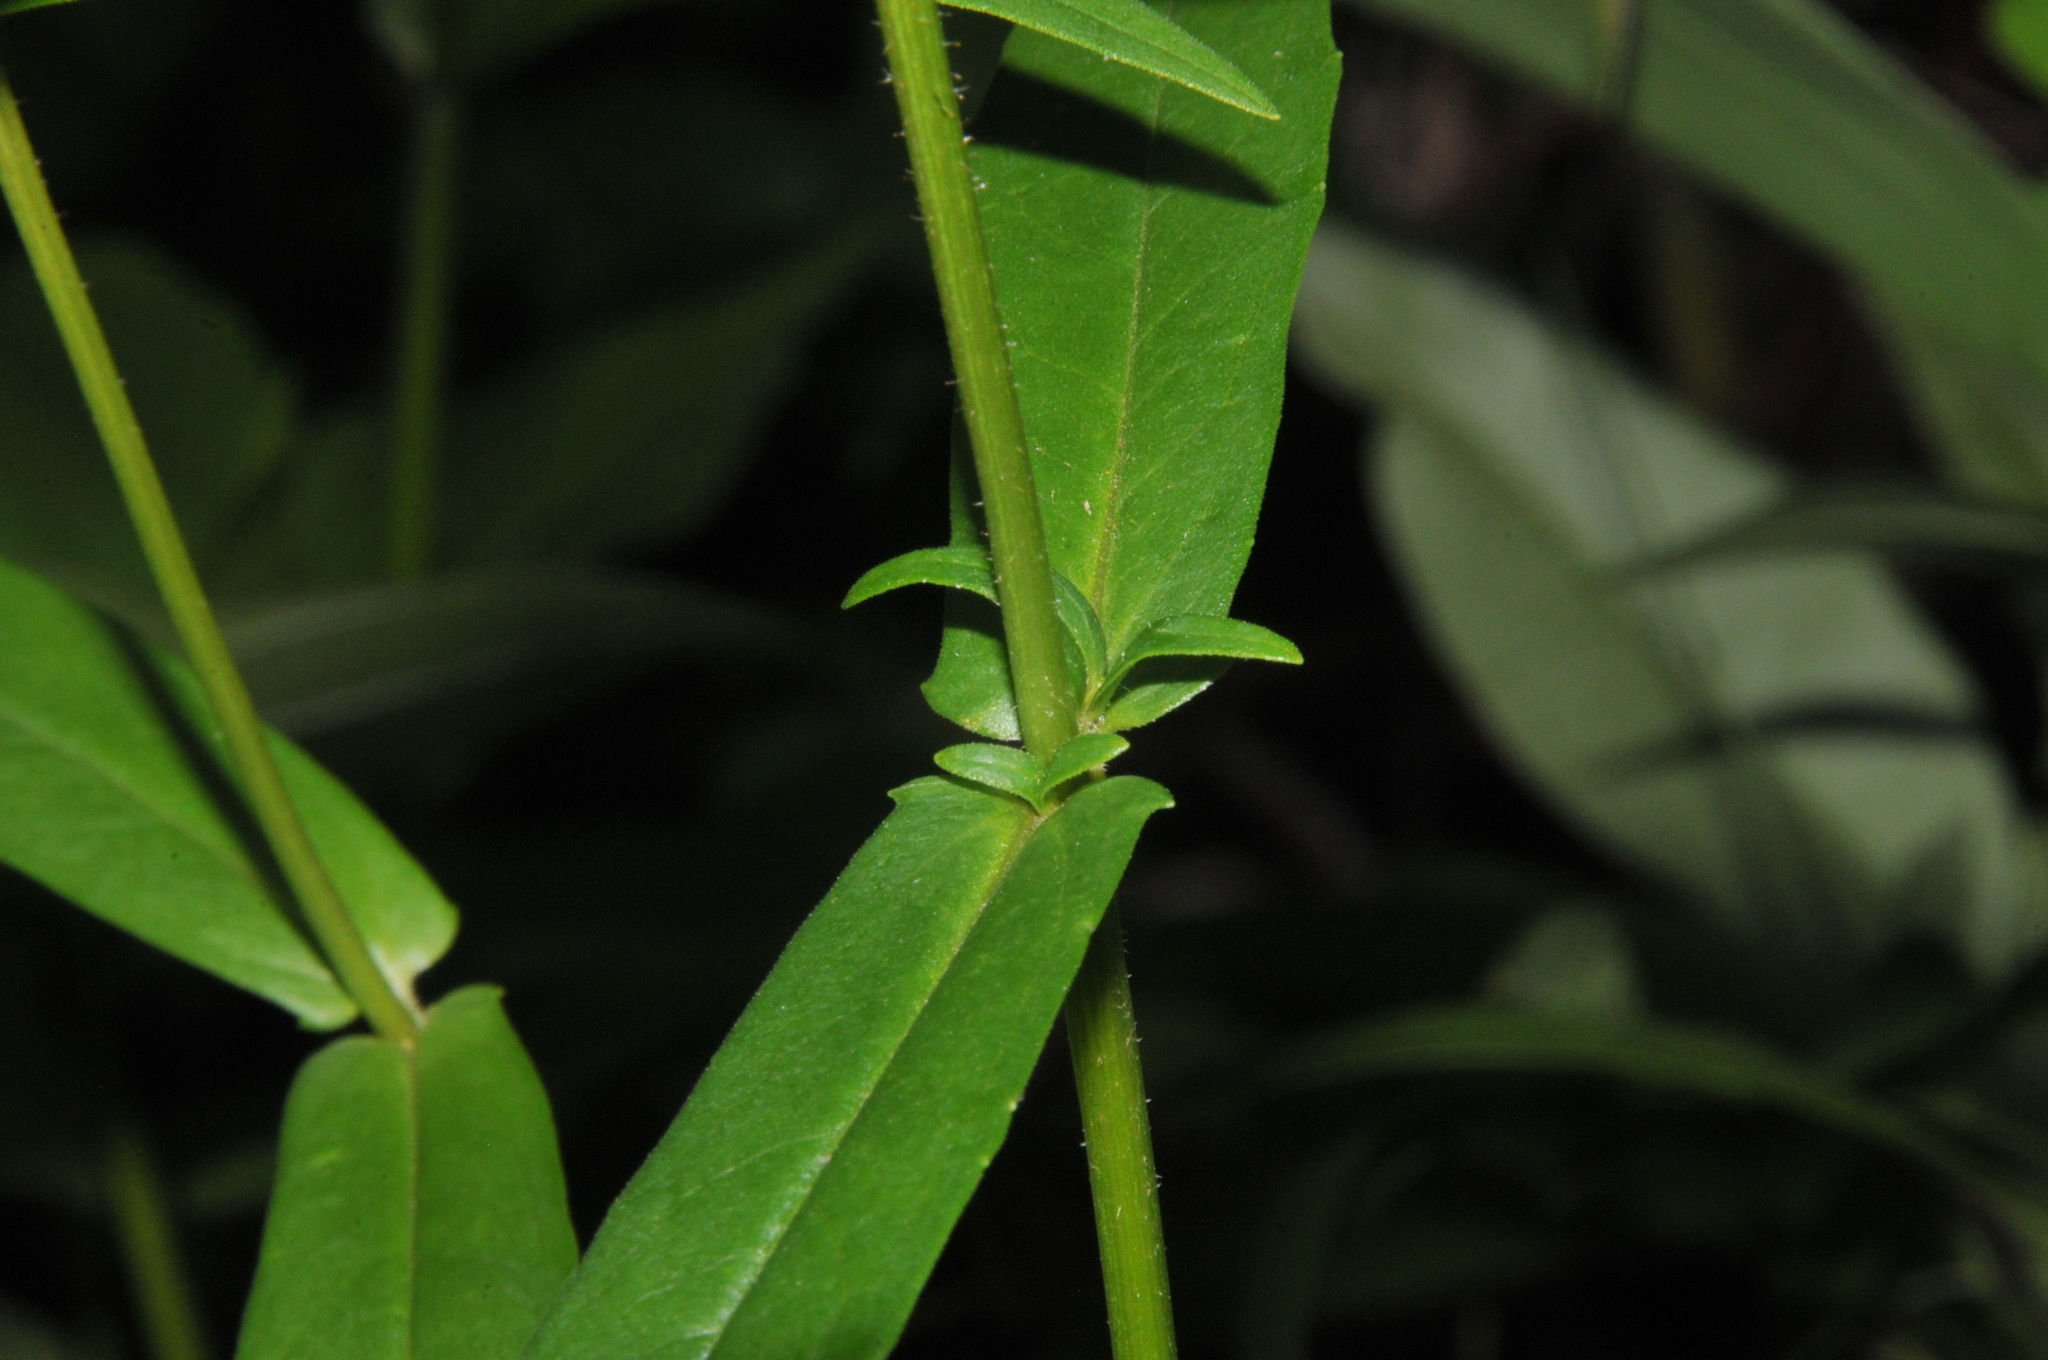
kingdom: Plantae
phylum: Tracheophyta
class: Magnoliopsida
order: Asterales
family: Asteraceae
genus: Jamesianthus
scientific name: Jamesianthus alabamensis
